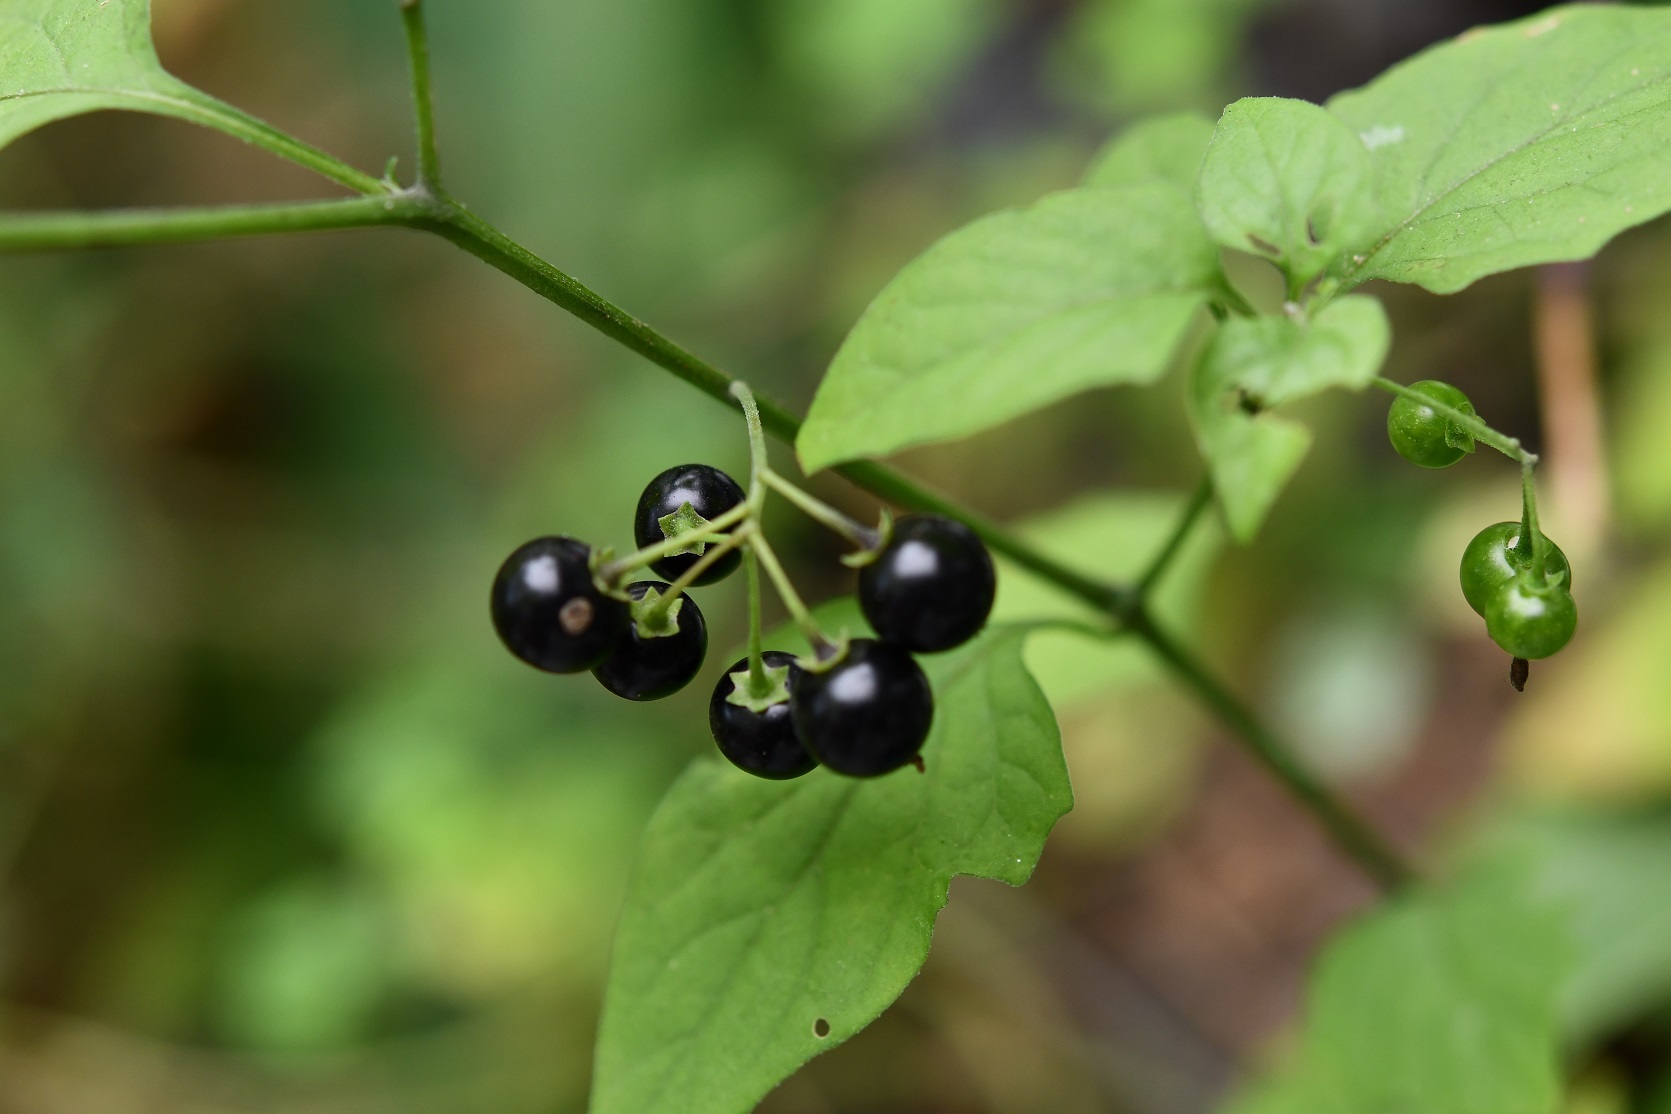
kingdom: Plantae
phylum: Tracheophyta
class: Magnoliopsida
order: Solanales
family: Solanaceae
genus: Solanum
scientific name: Solanum americanum
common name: American black nightshade
